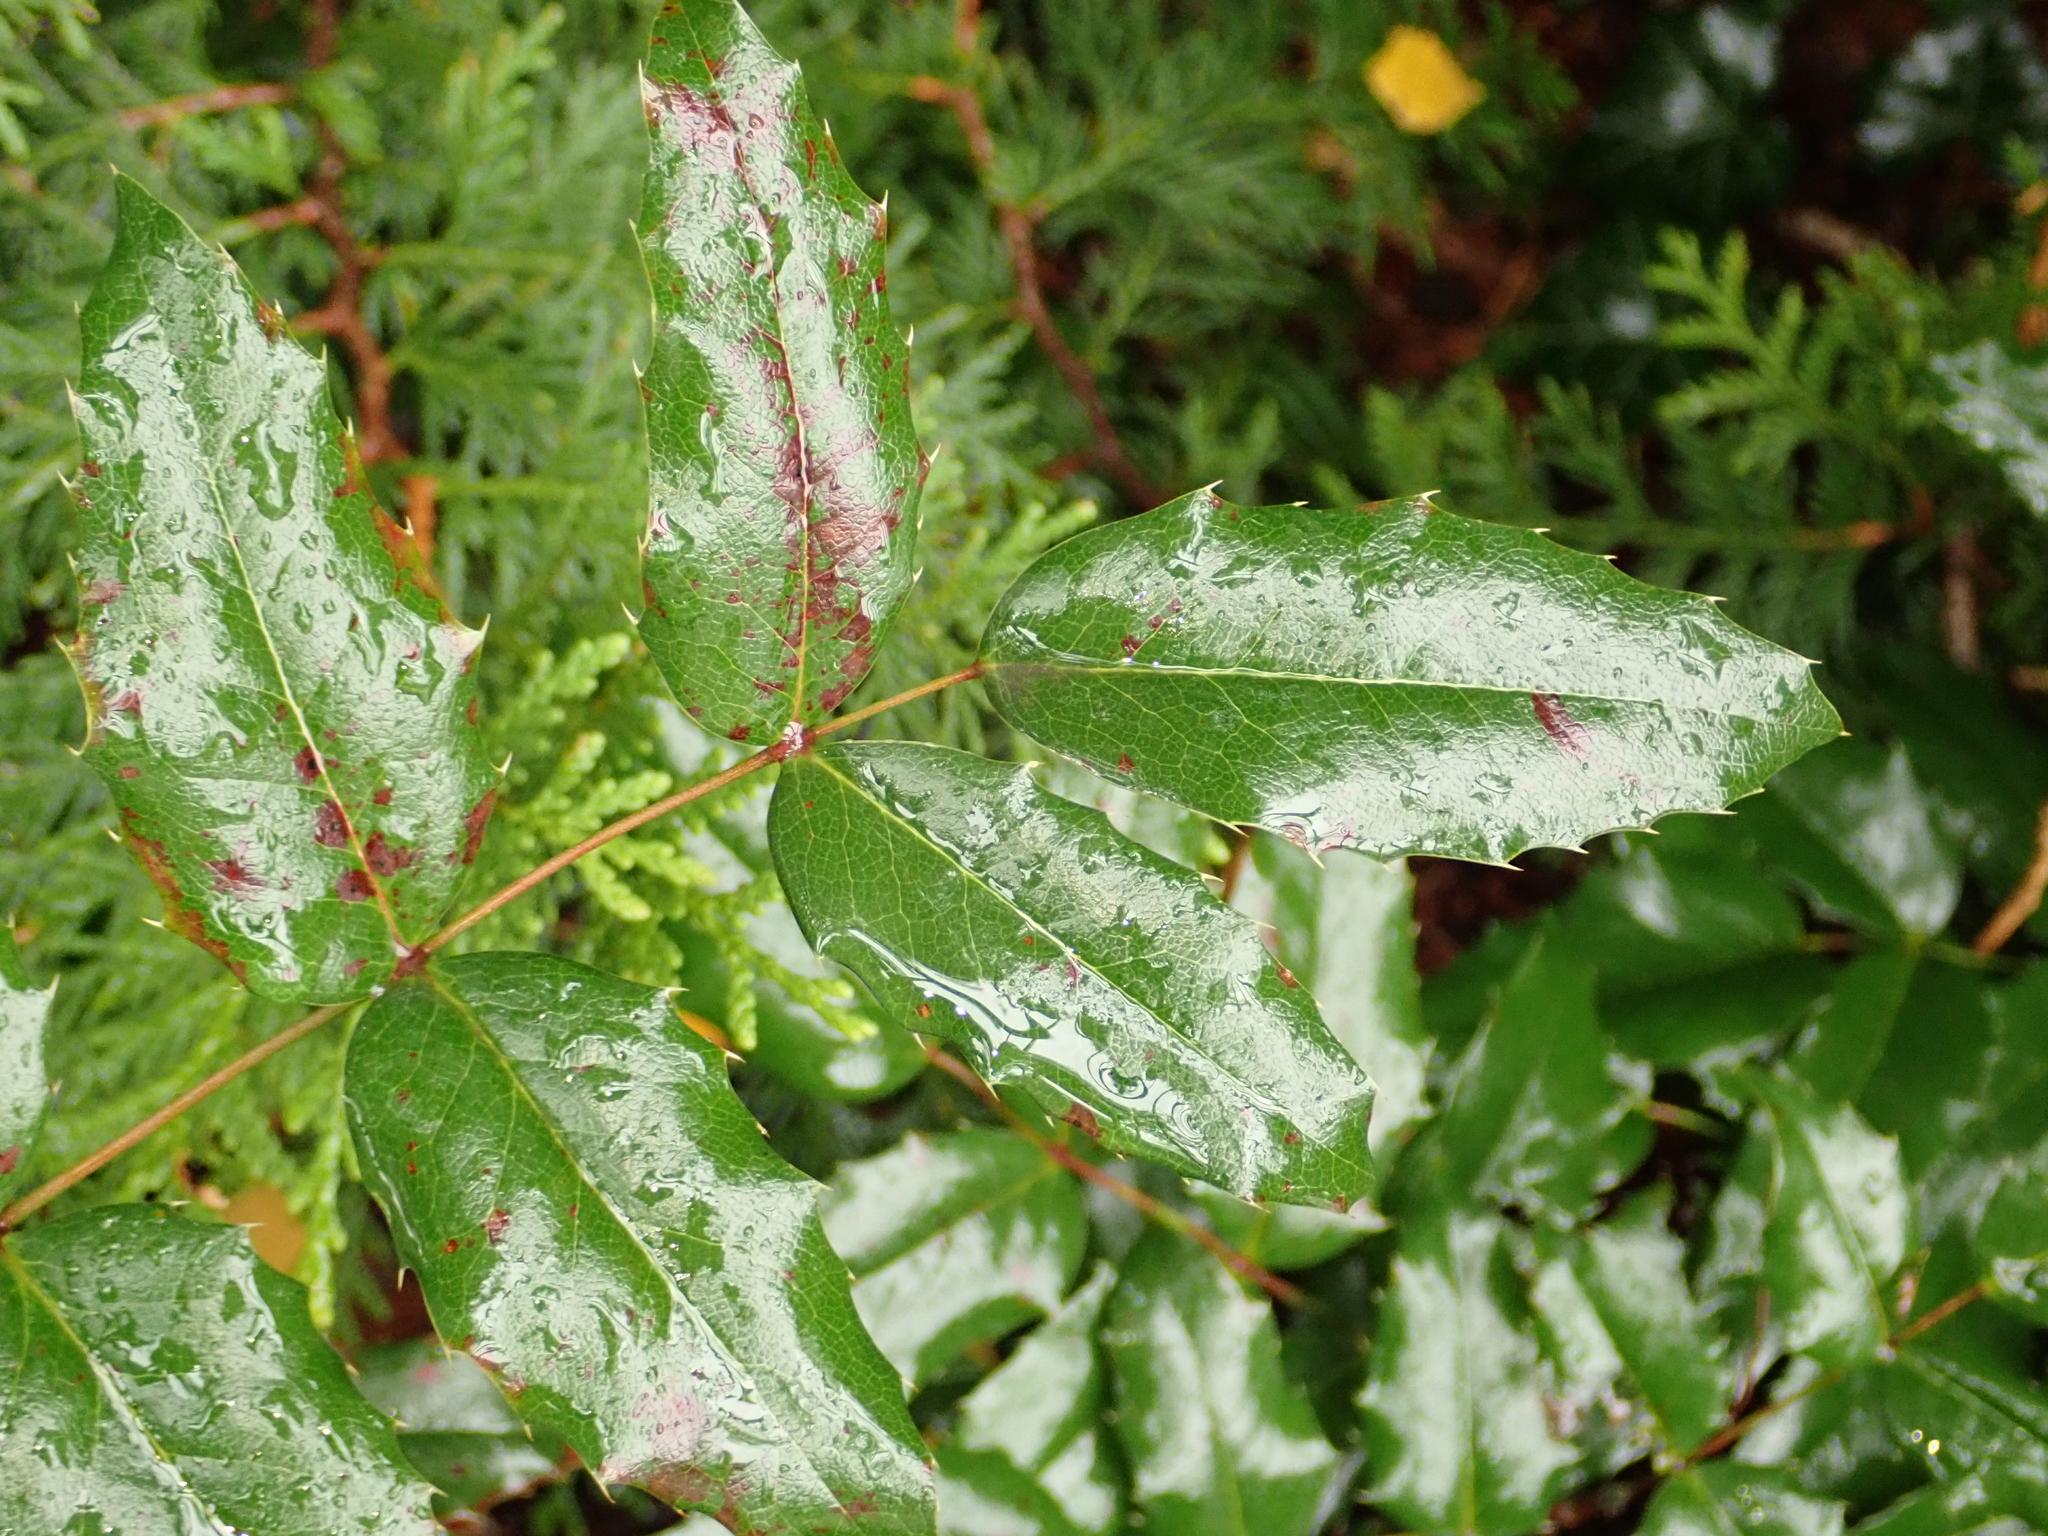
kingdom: Plantae
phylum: Tracheophyta
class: Magnoliopsida
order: Ranunculales
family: Berberidaceae
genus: Mahonia
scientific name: Mahonia aquifolium
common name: Oregon-grape
